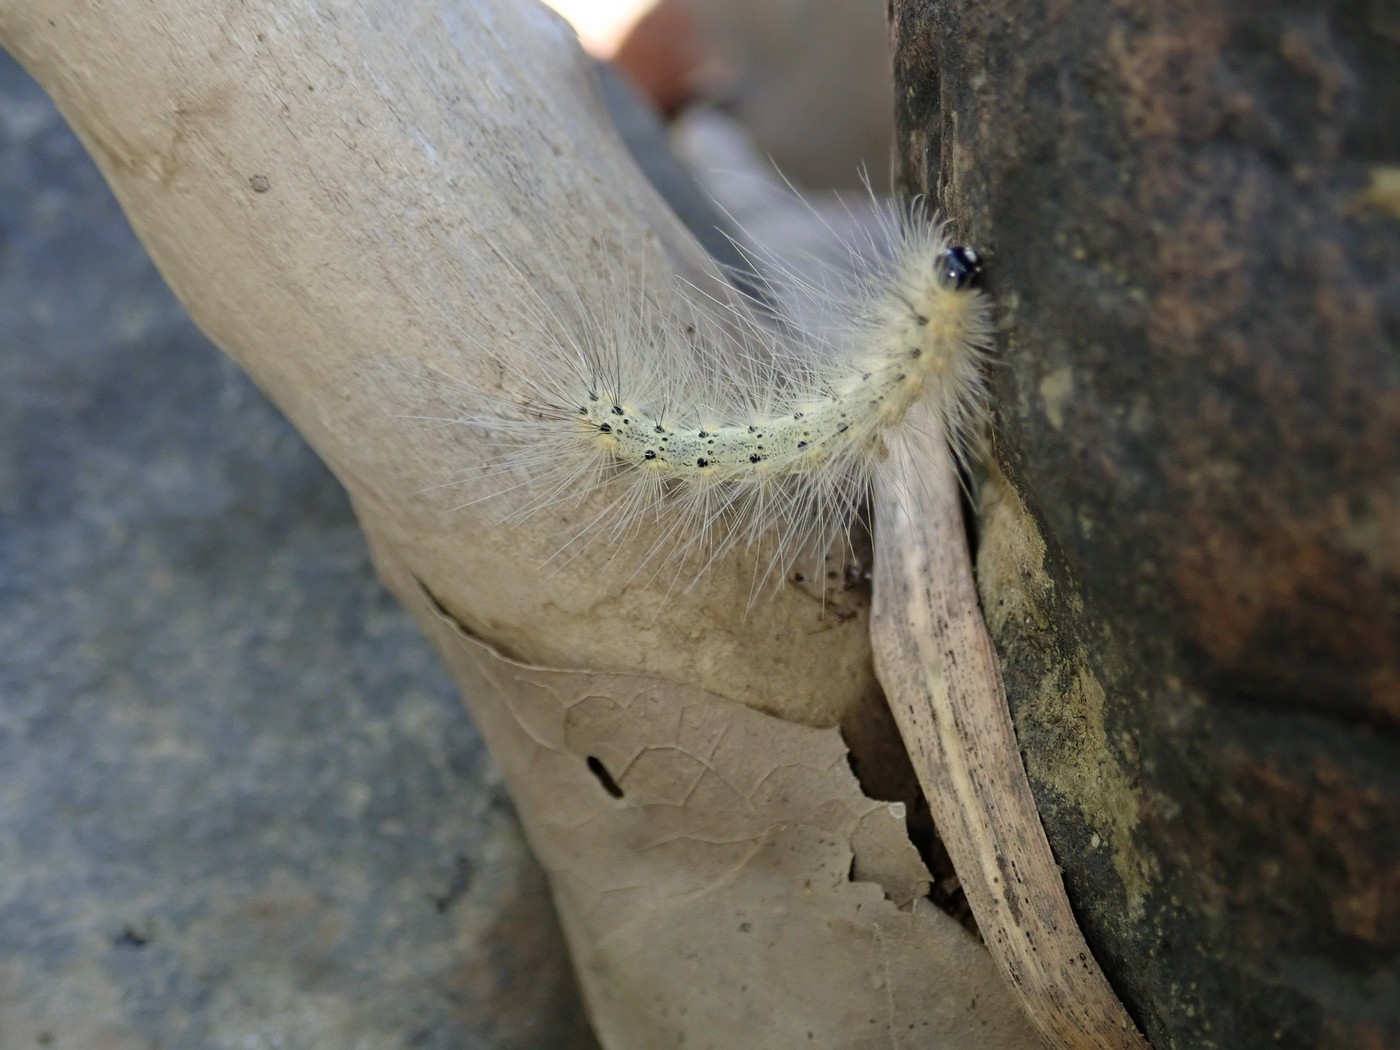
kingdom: Animalia
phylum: Arthropoda
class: Insecta
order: Lepidoptera
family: Erebidae
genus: Hyphantria
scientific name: Hyphantria cunea
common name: American white moth
